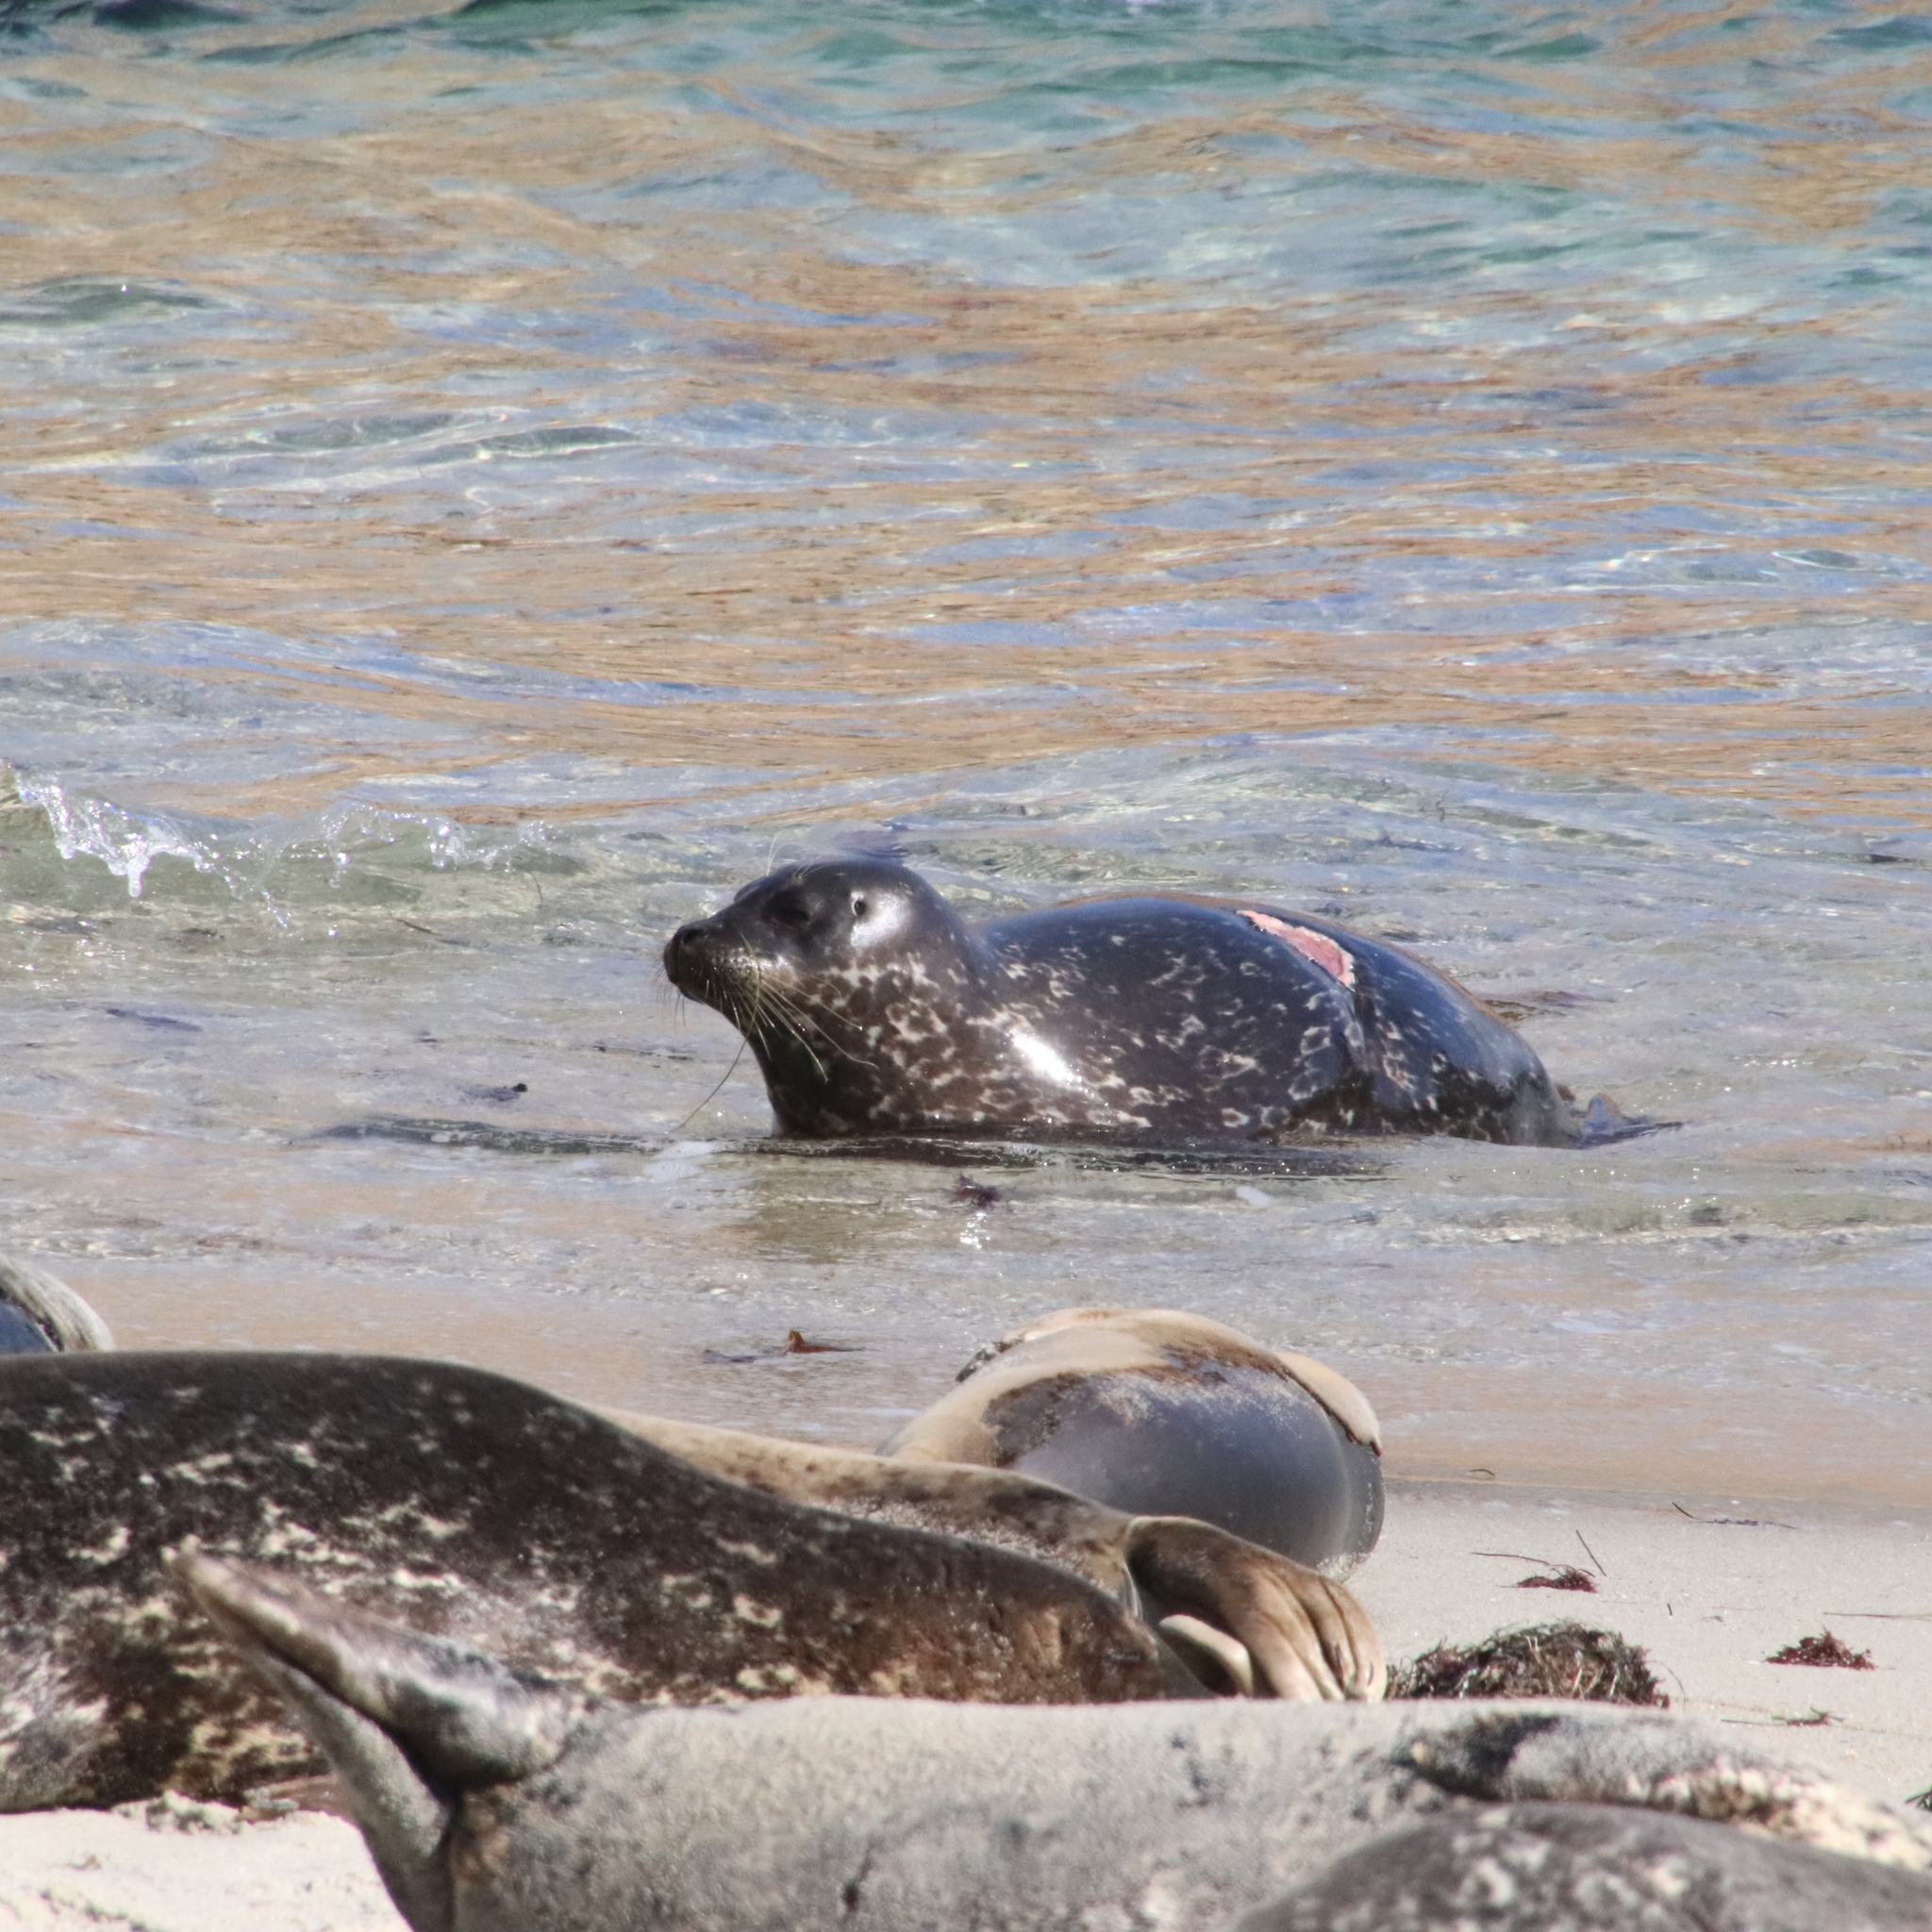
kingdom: Animalia
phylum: Chordata
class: Mammalia
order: Carnivora
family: Phocidae
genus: Phoca
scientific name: Phoca vitulina
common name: Harbor seal
